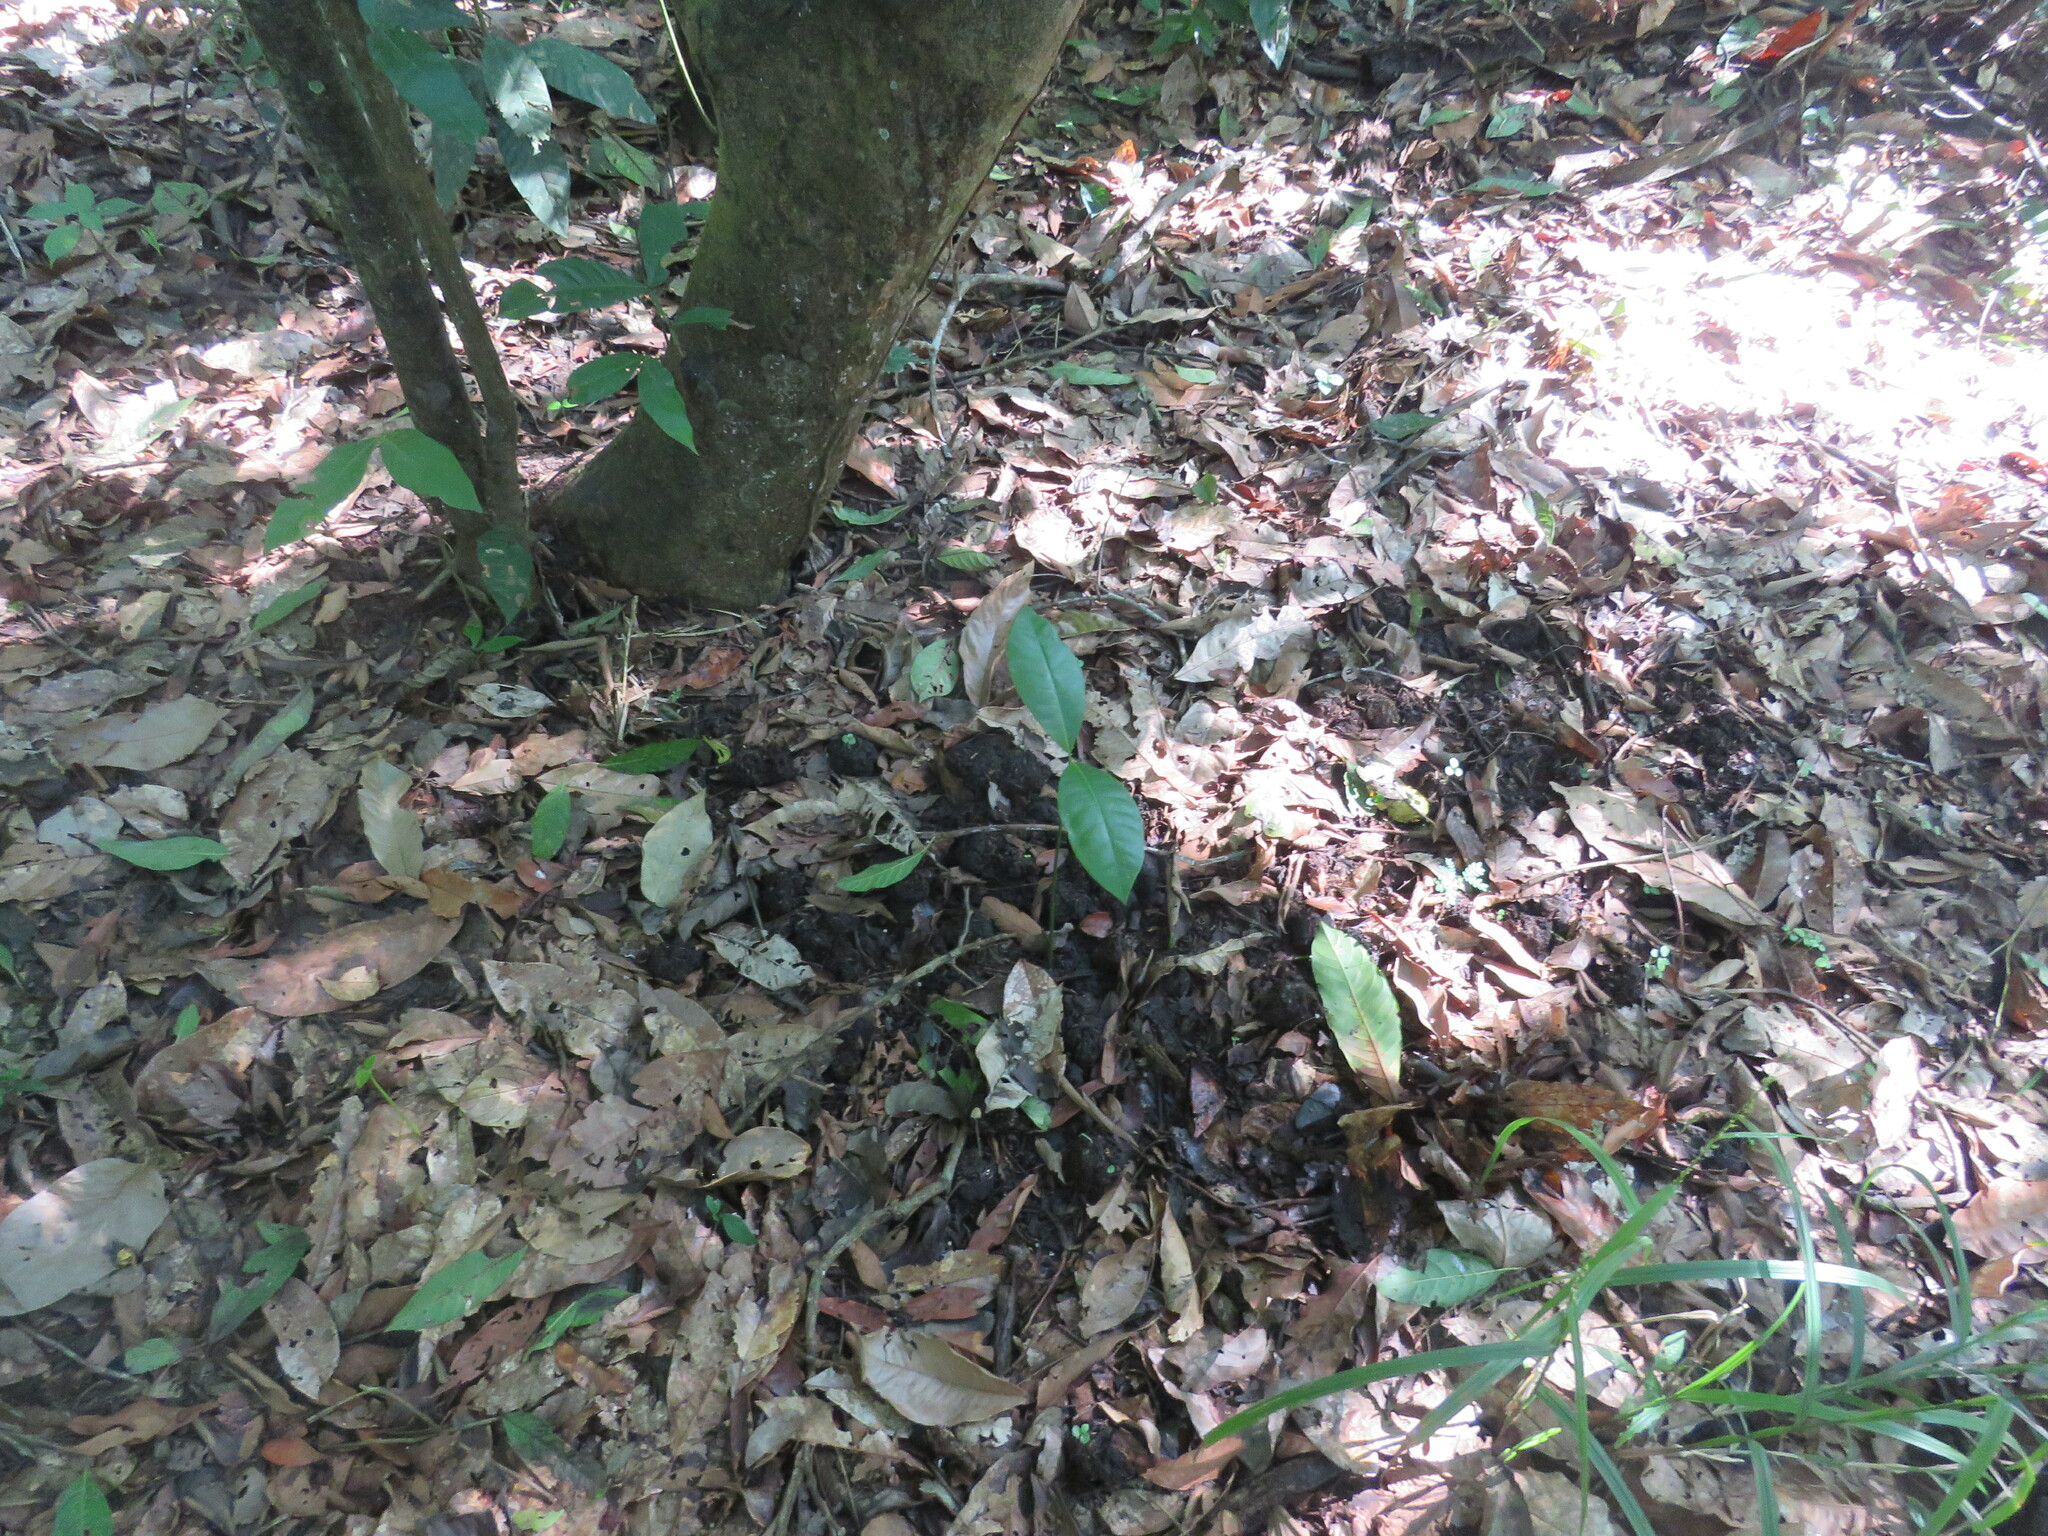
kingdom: Animalia
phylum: Chordata
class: Mammalia
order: Perissodactyla
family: Tapiridae
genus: Tapirus
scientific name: Tapirus terrestris
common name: Brazilian tapir
